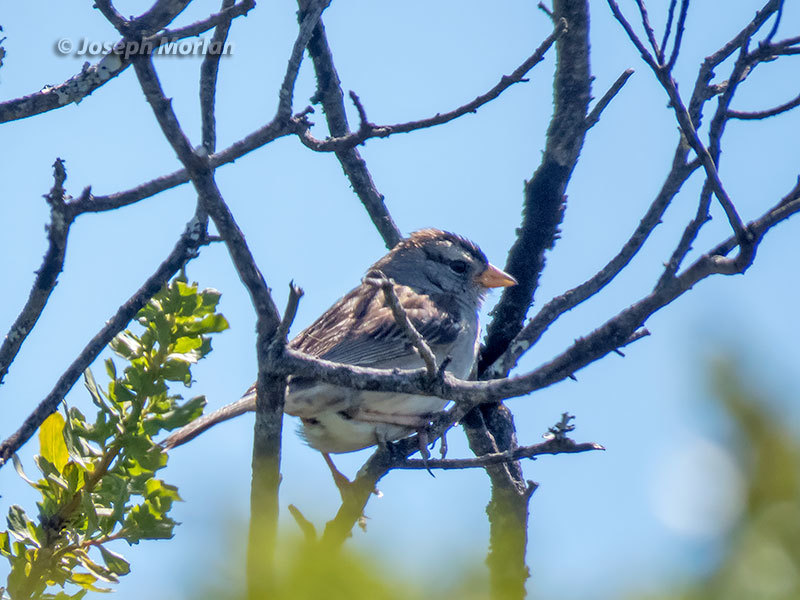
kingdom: Animalia
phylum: Chordata
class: Aves
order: Passeriformes
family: Passerellidae
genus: Zonotrichia
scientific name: Zonotrichia leucophrys
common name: White-crowned sparrow
